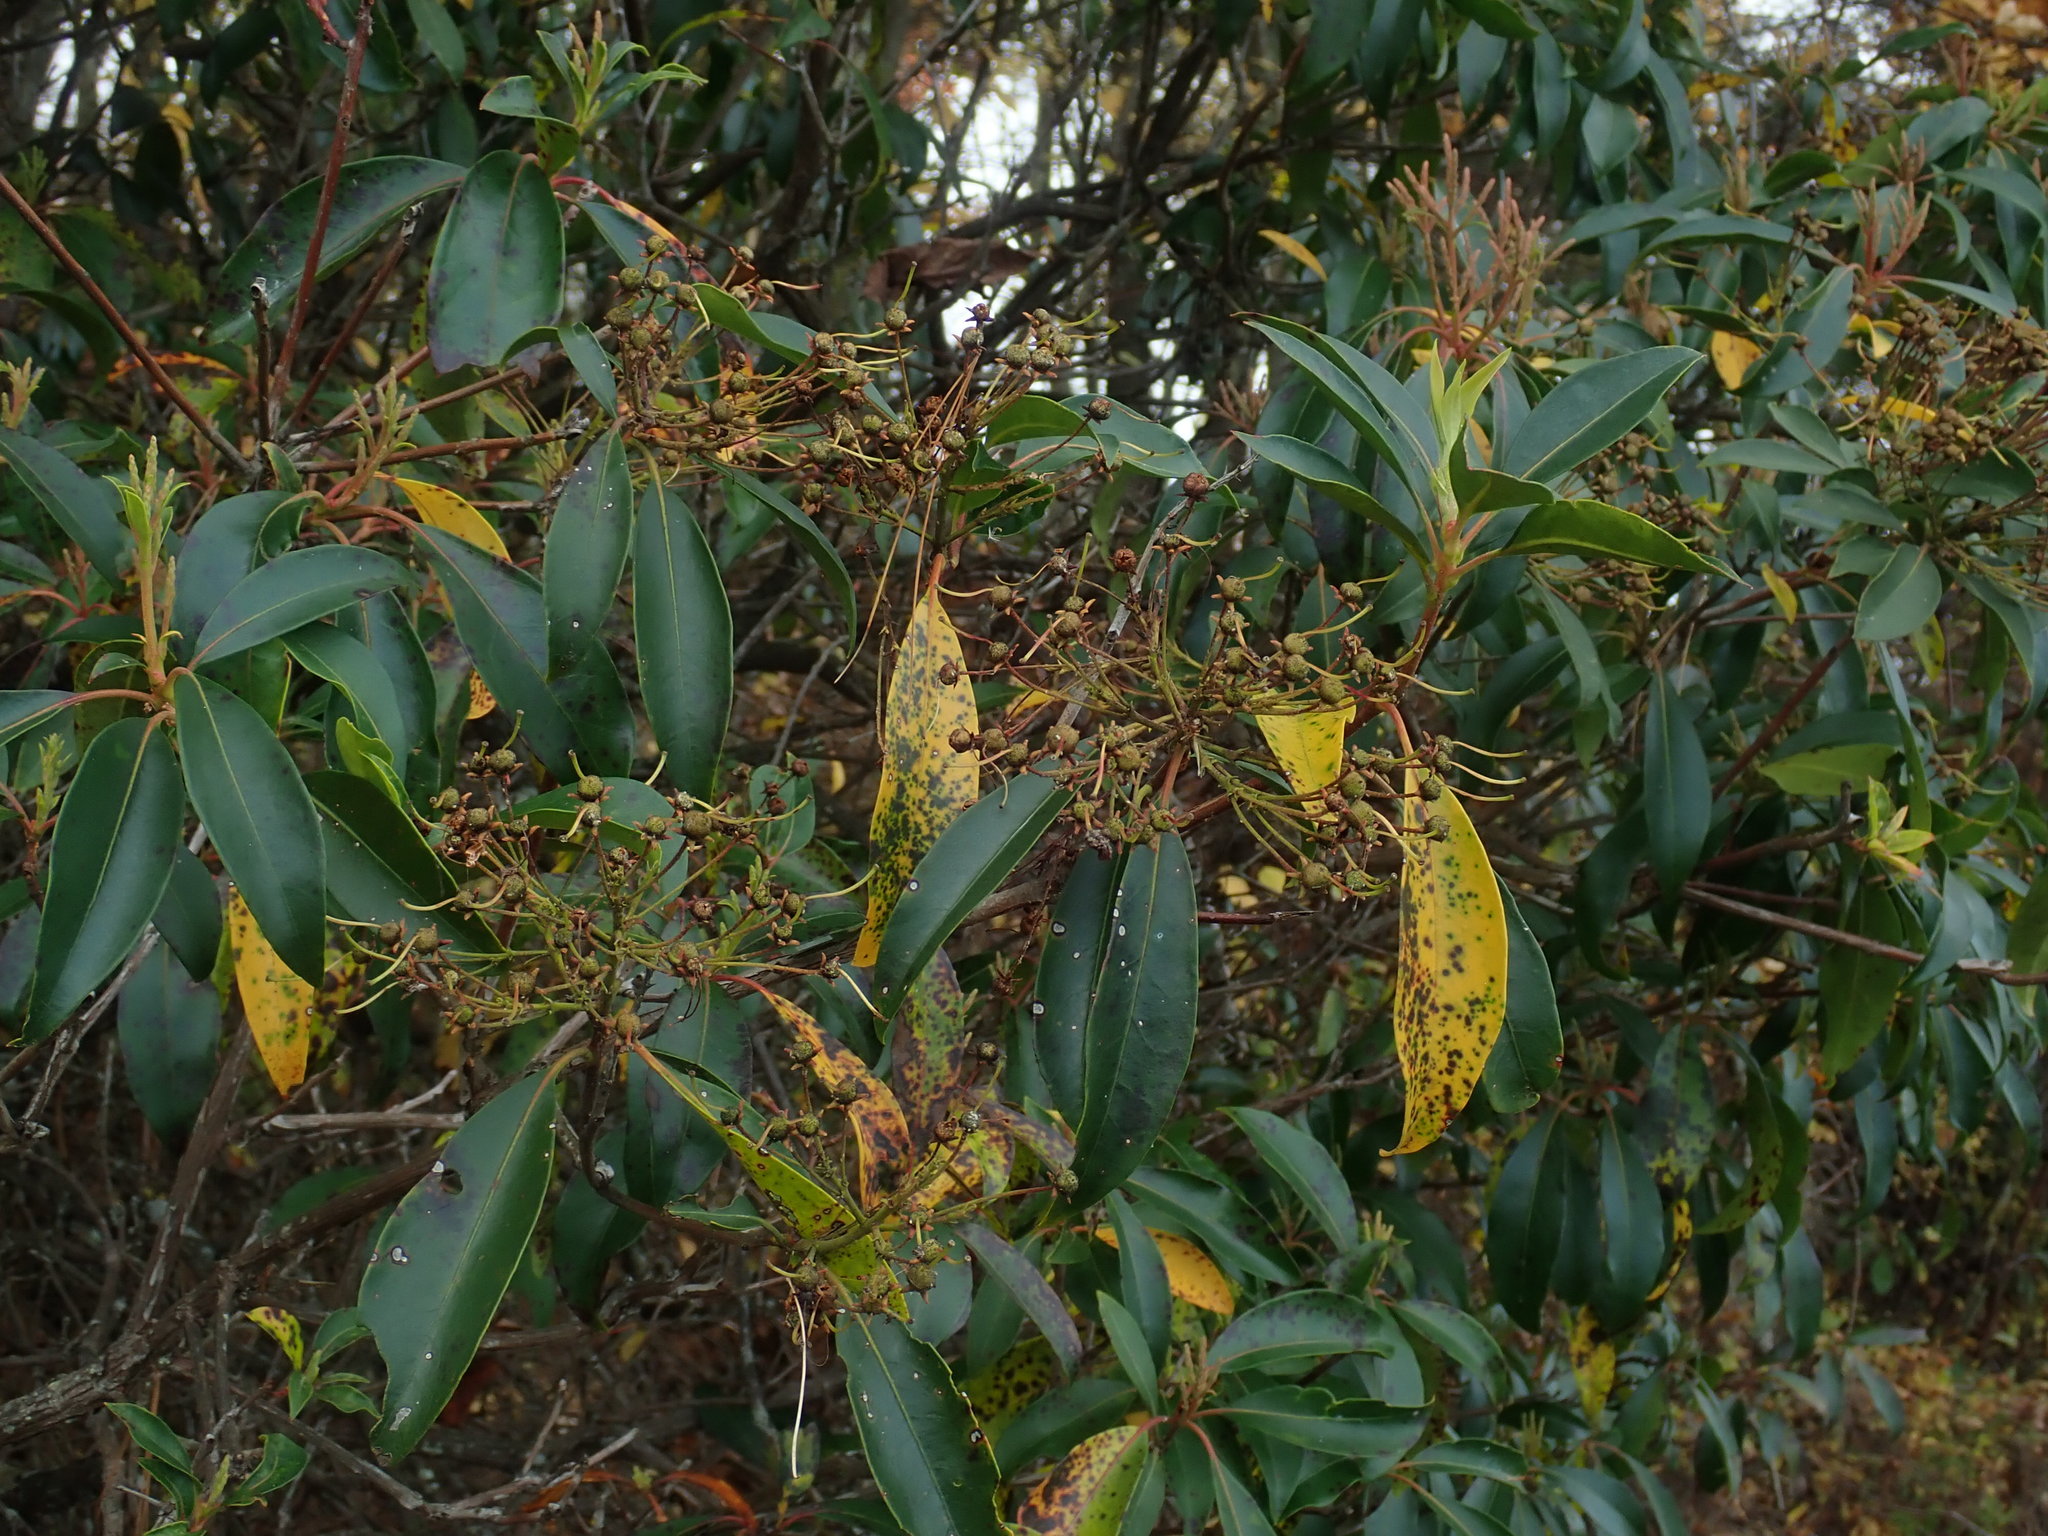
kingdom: Plantae
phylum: Tracheophyta
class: Magnoliopsida
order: Ericales
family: Ericaceae
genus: Kalmia
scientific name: Kalmia latifolia
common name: Mountain-laurel
